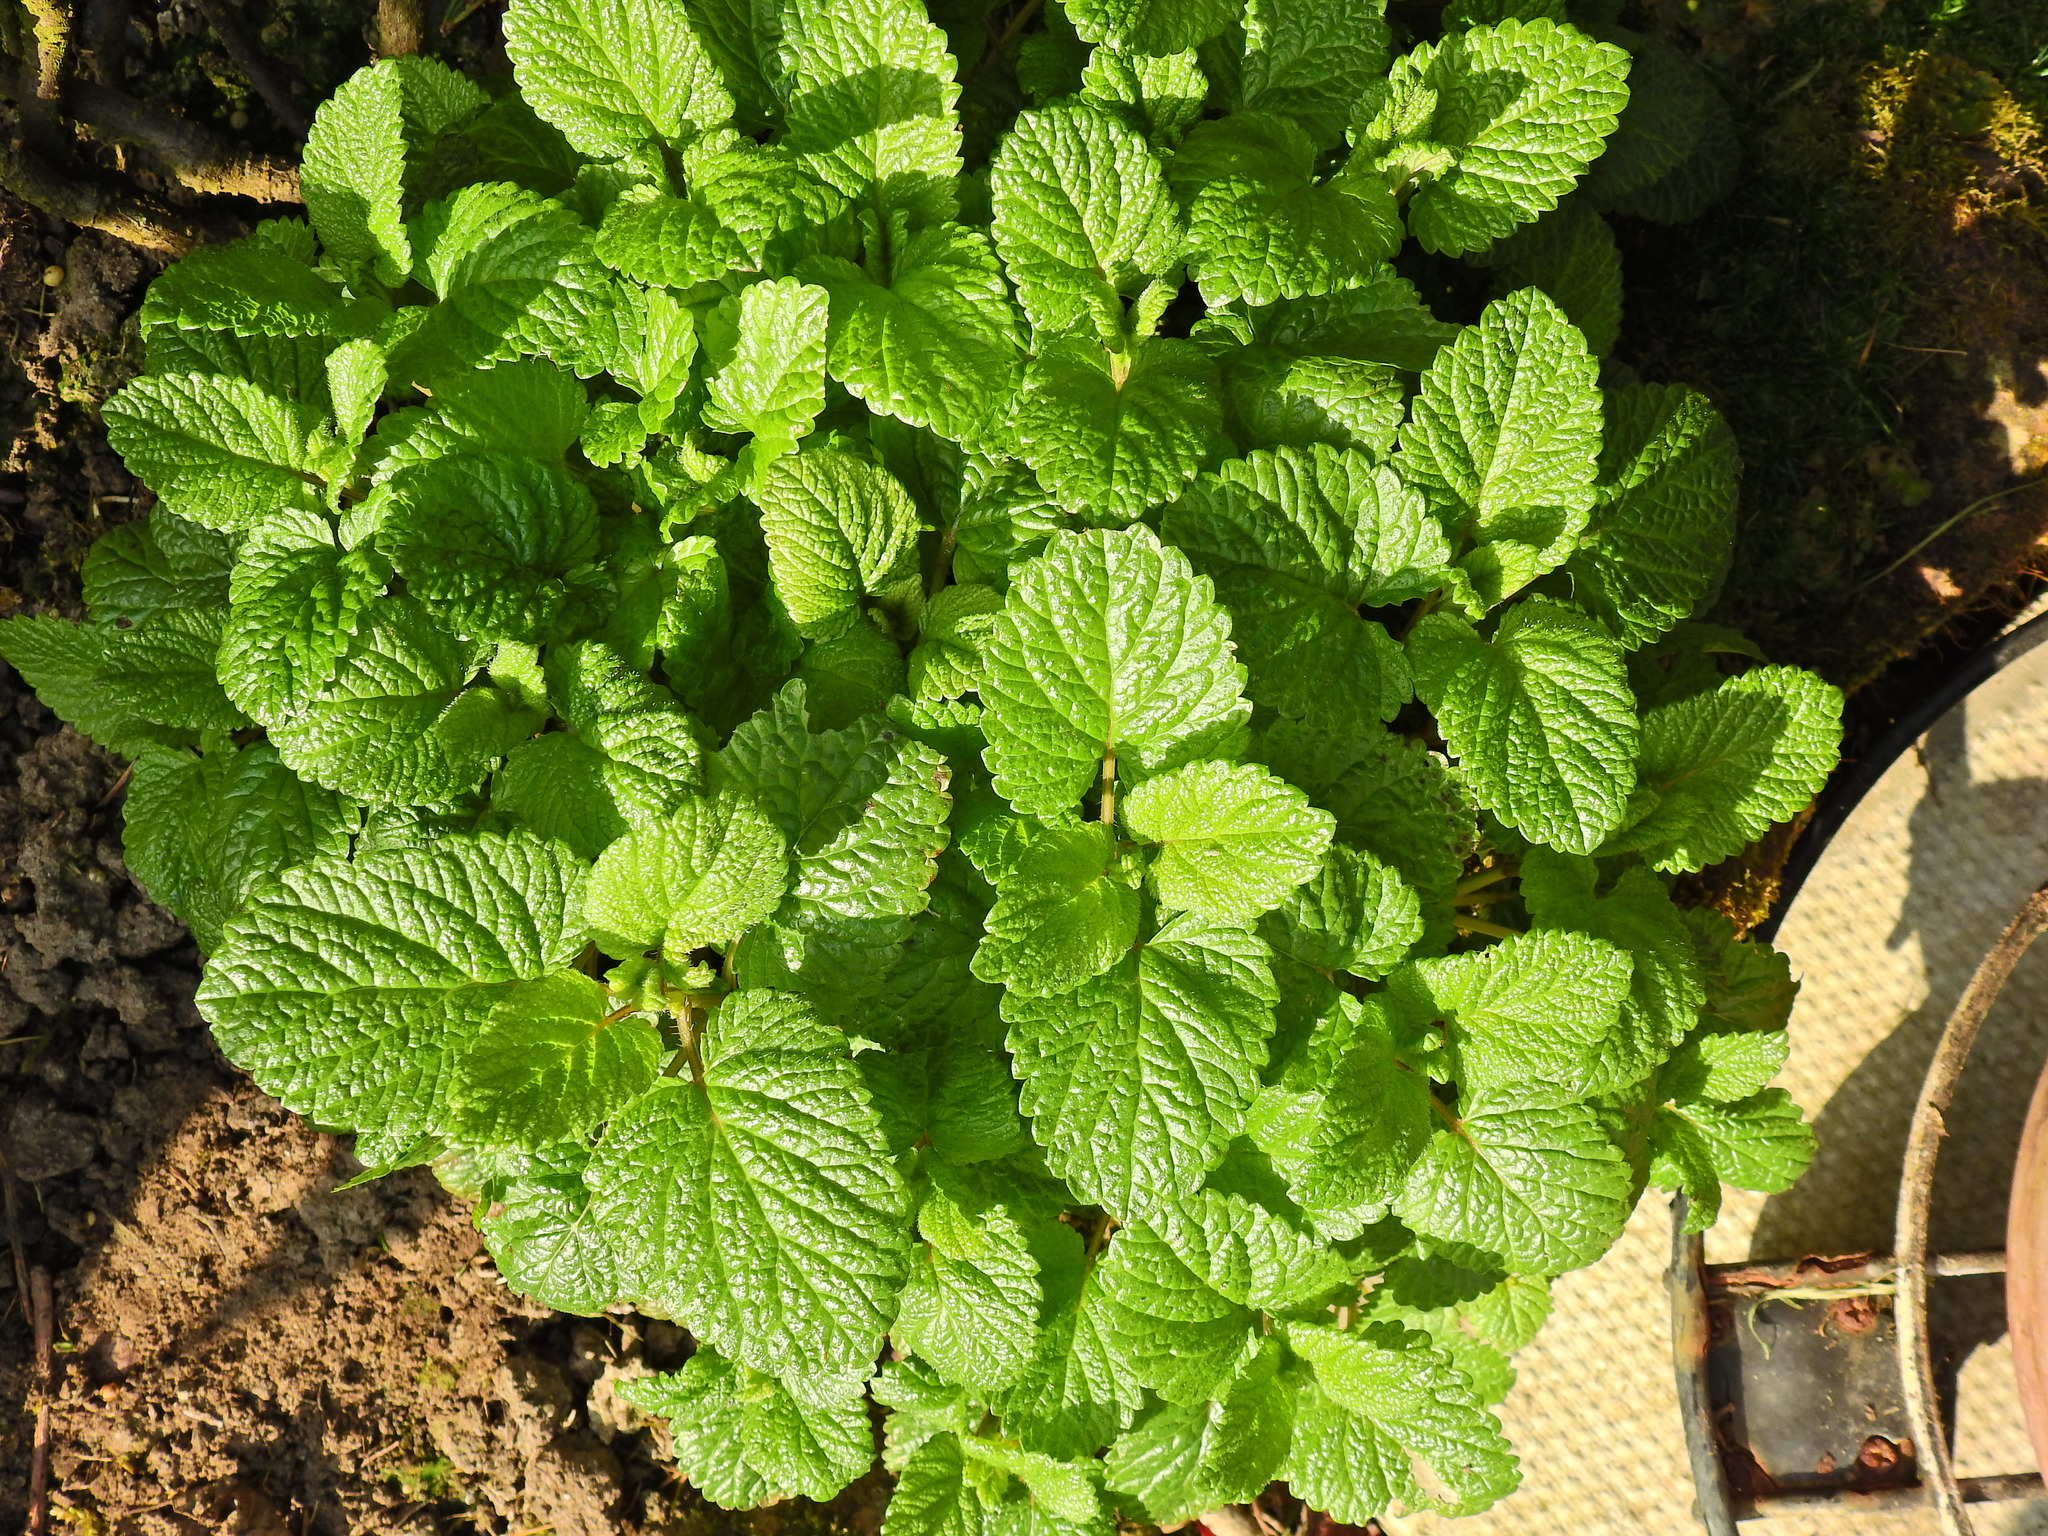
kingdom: Plantae
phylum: Tracheophyta
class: Magnoliopsida
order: Lamiales
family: Lamiaceae
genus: Melissa
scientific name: Melissa officinalis
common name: Balm
